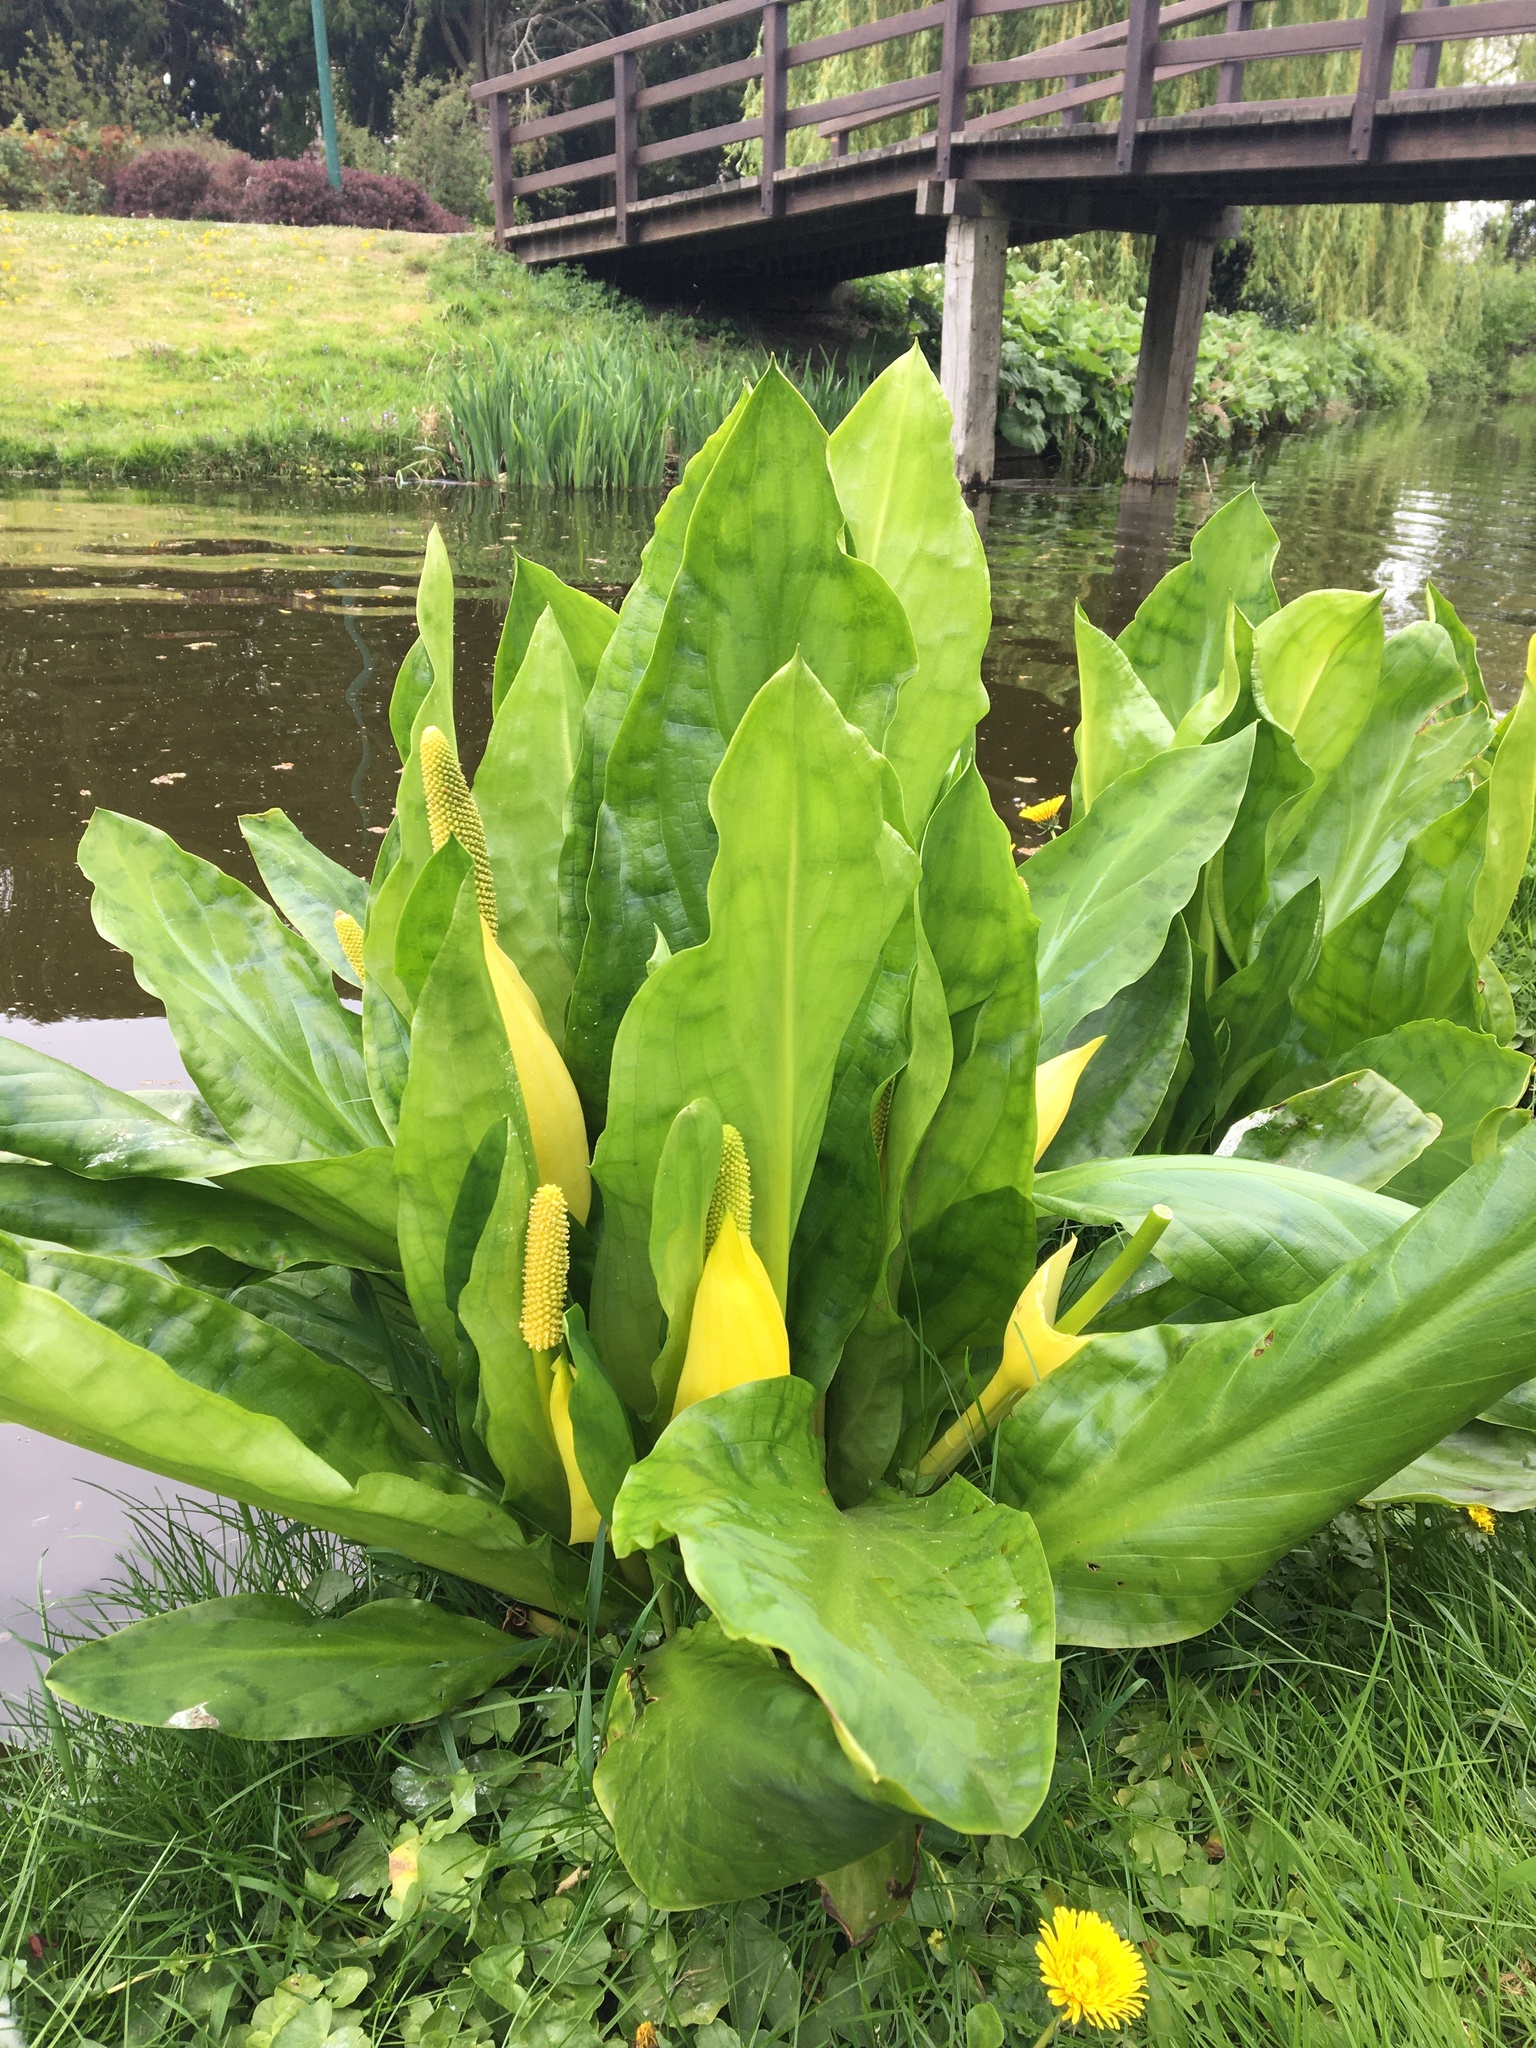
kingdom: Plantae
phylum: Tracheophyta
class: Liliopsida
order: Alismatales
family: Araceae
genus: Lysichiton
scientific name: Lysichiton americanus
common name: American skunk cabbage
